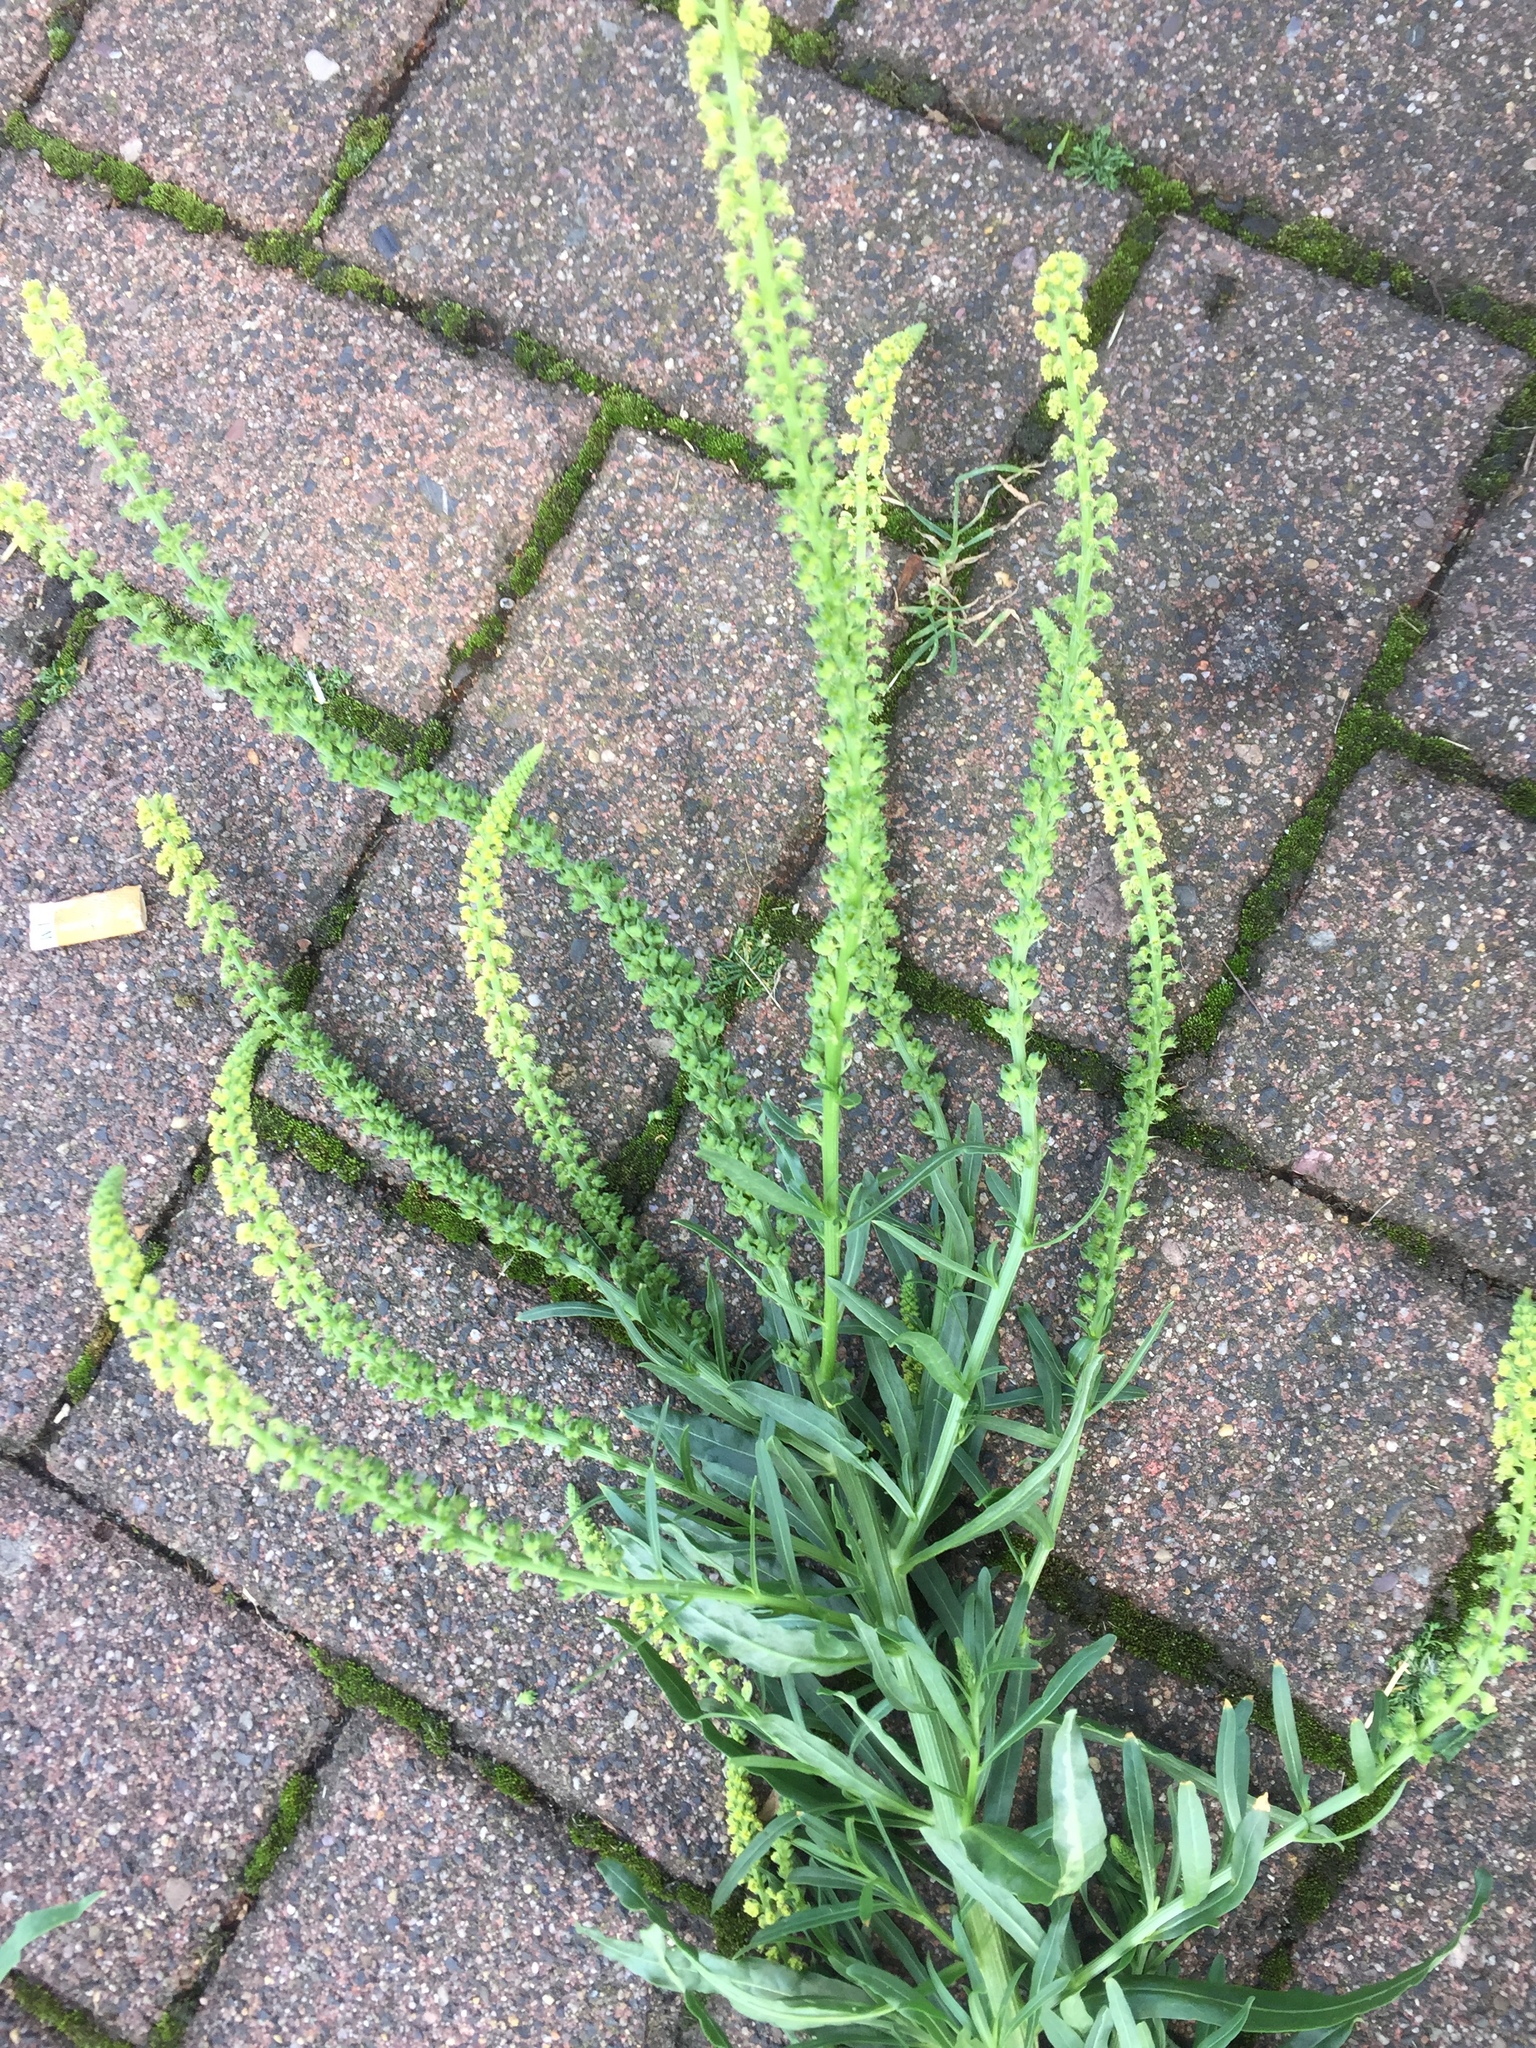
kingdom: Plantae
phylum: Tracheophyta
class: Magnoliopsida
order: Brassicales
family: Resedaceae
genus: Reseda
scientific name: Reseda luteola
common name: Weld
